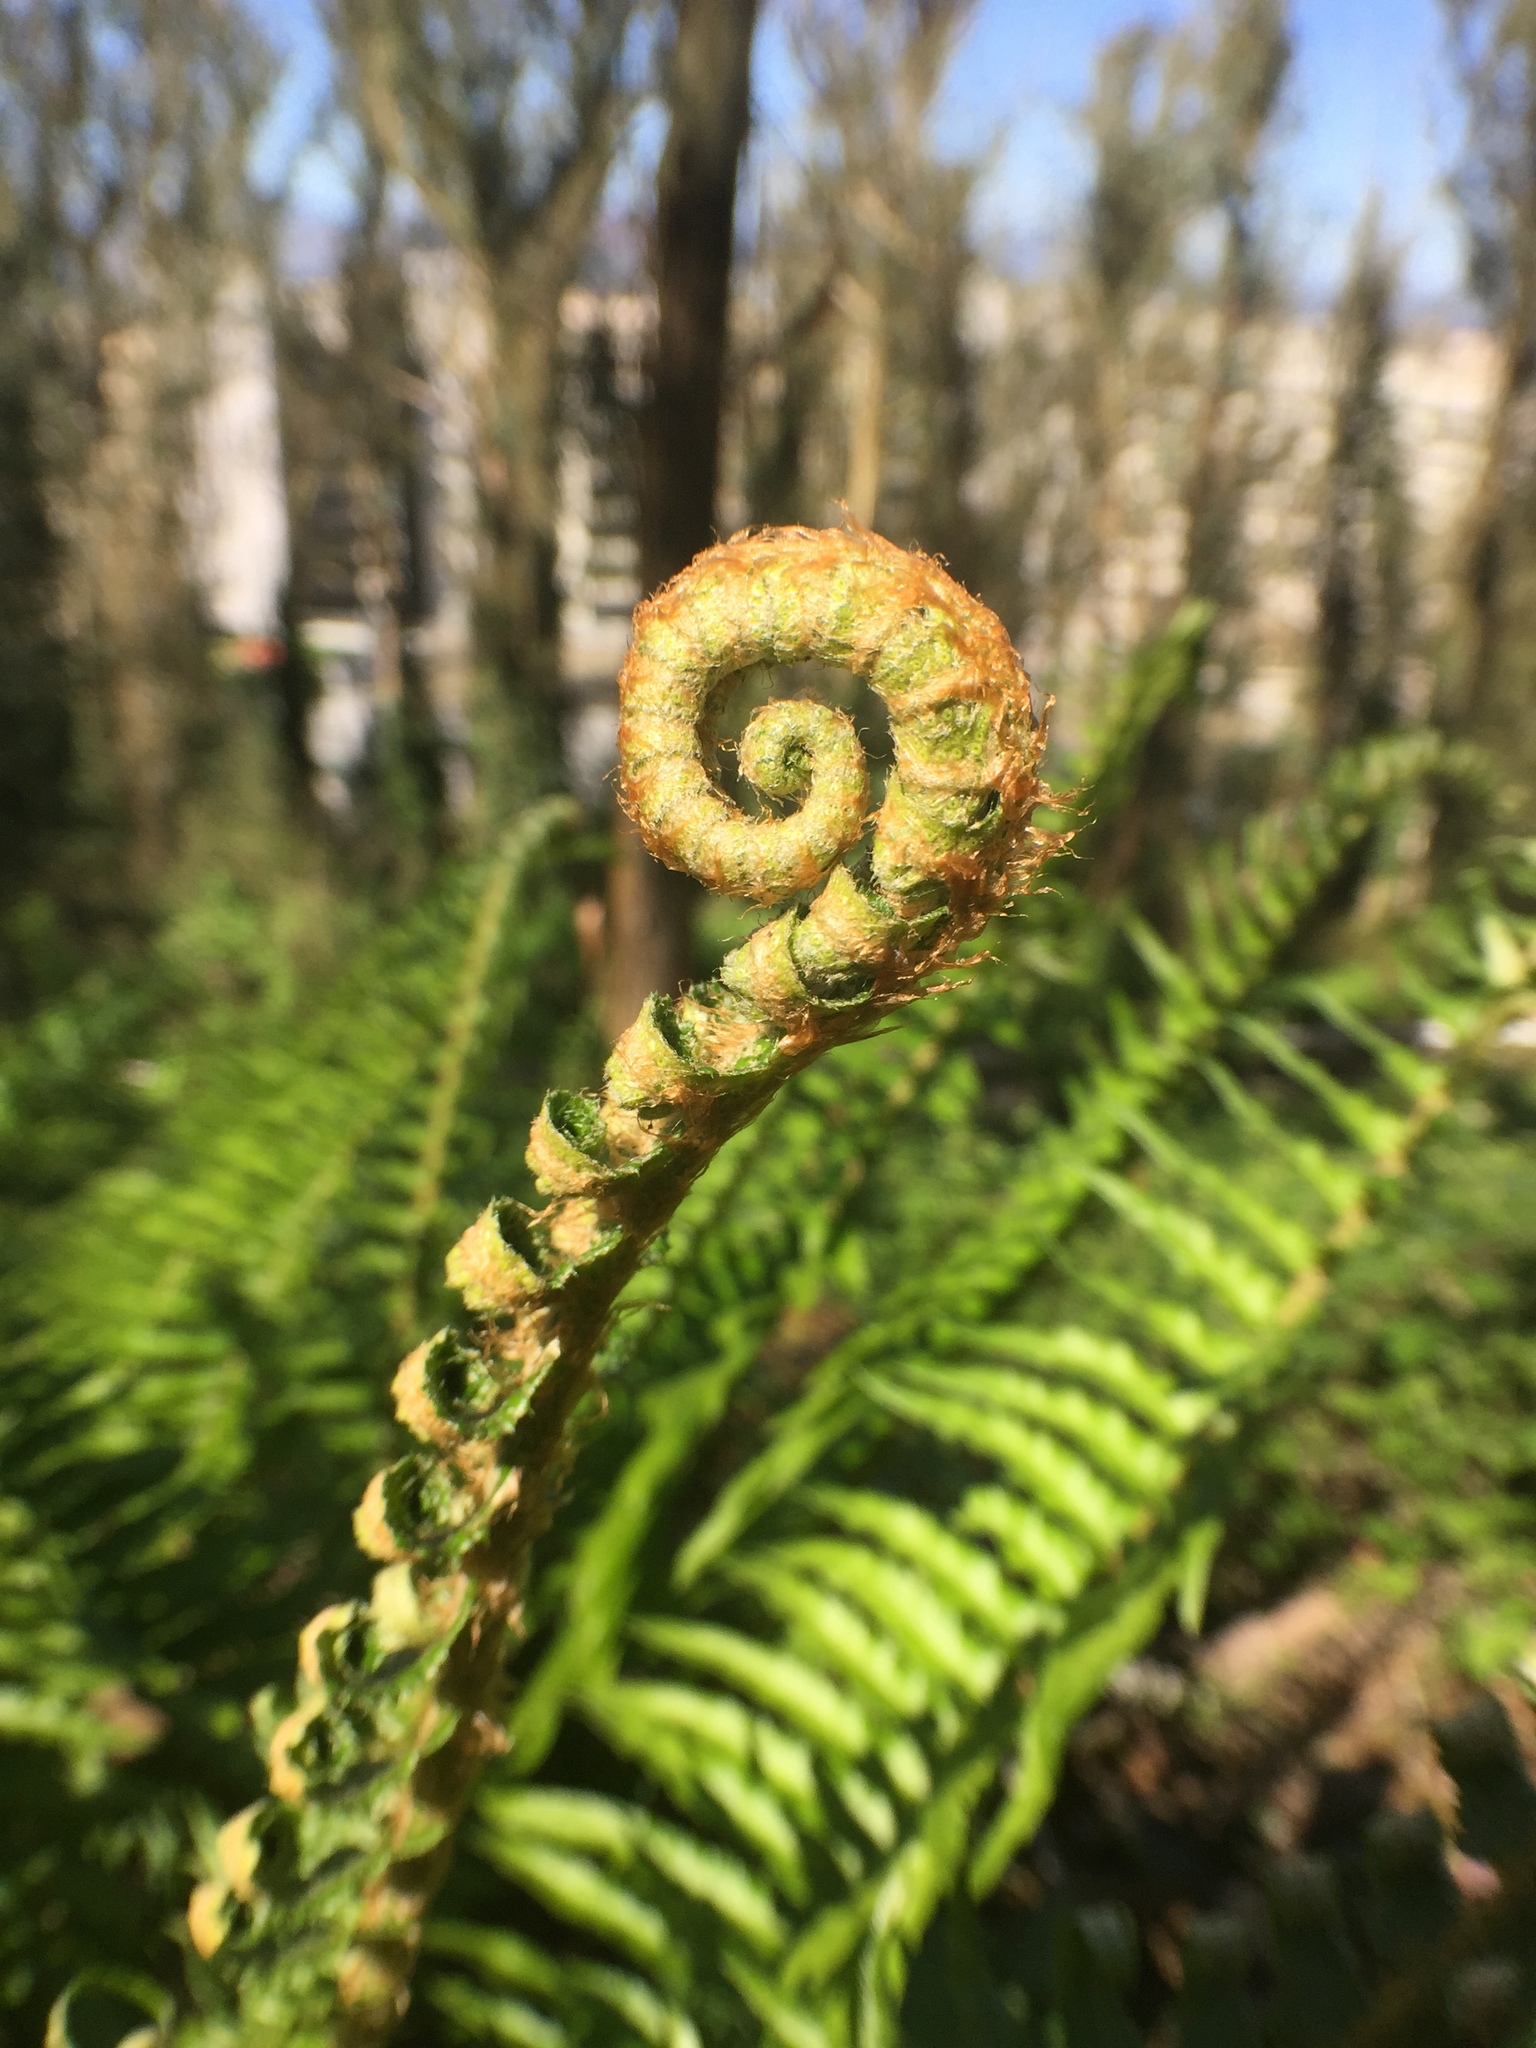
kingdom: Plantae
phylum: Tracheophyta
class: Polypodiopsida
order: Polypodiales
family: Dryopteridaceae
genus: Polystichum
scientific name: Polystichum munitum
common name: Western sword-fern
